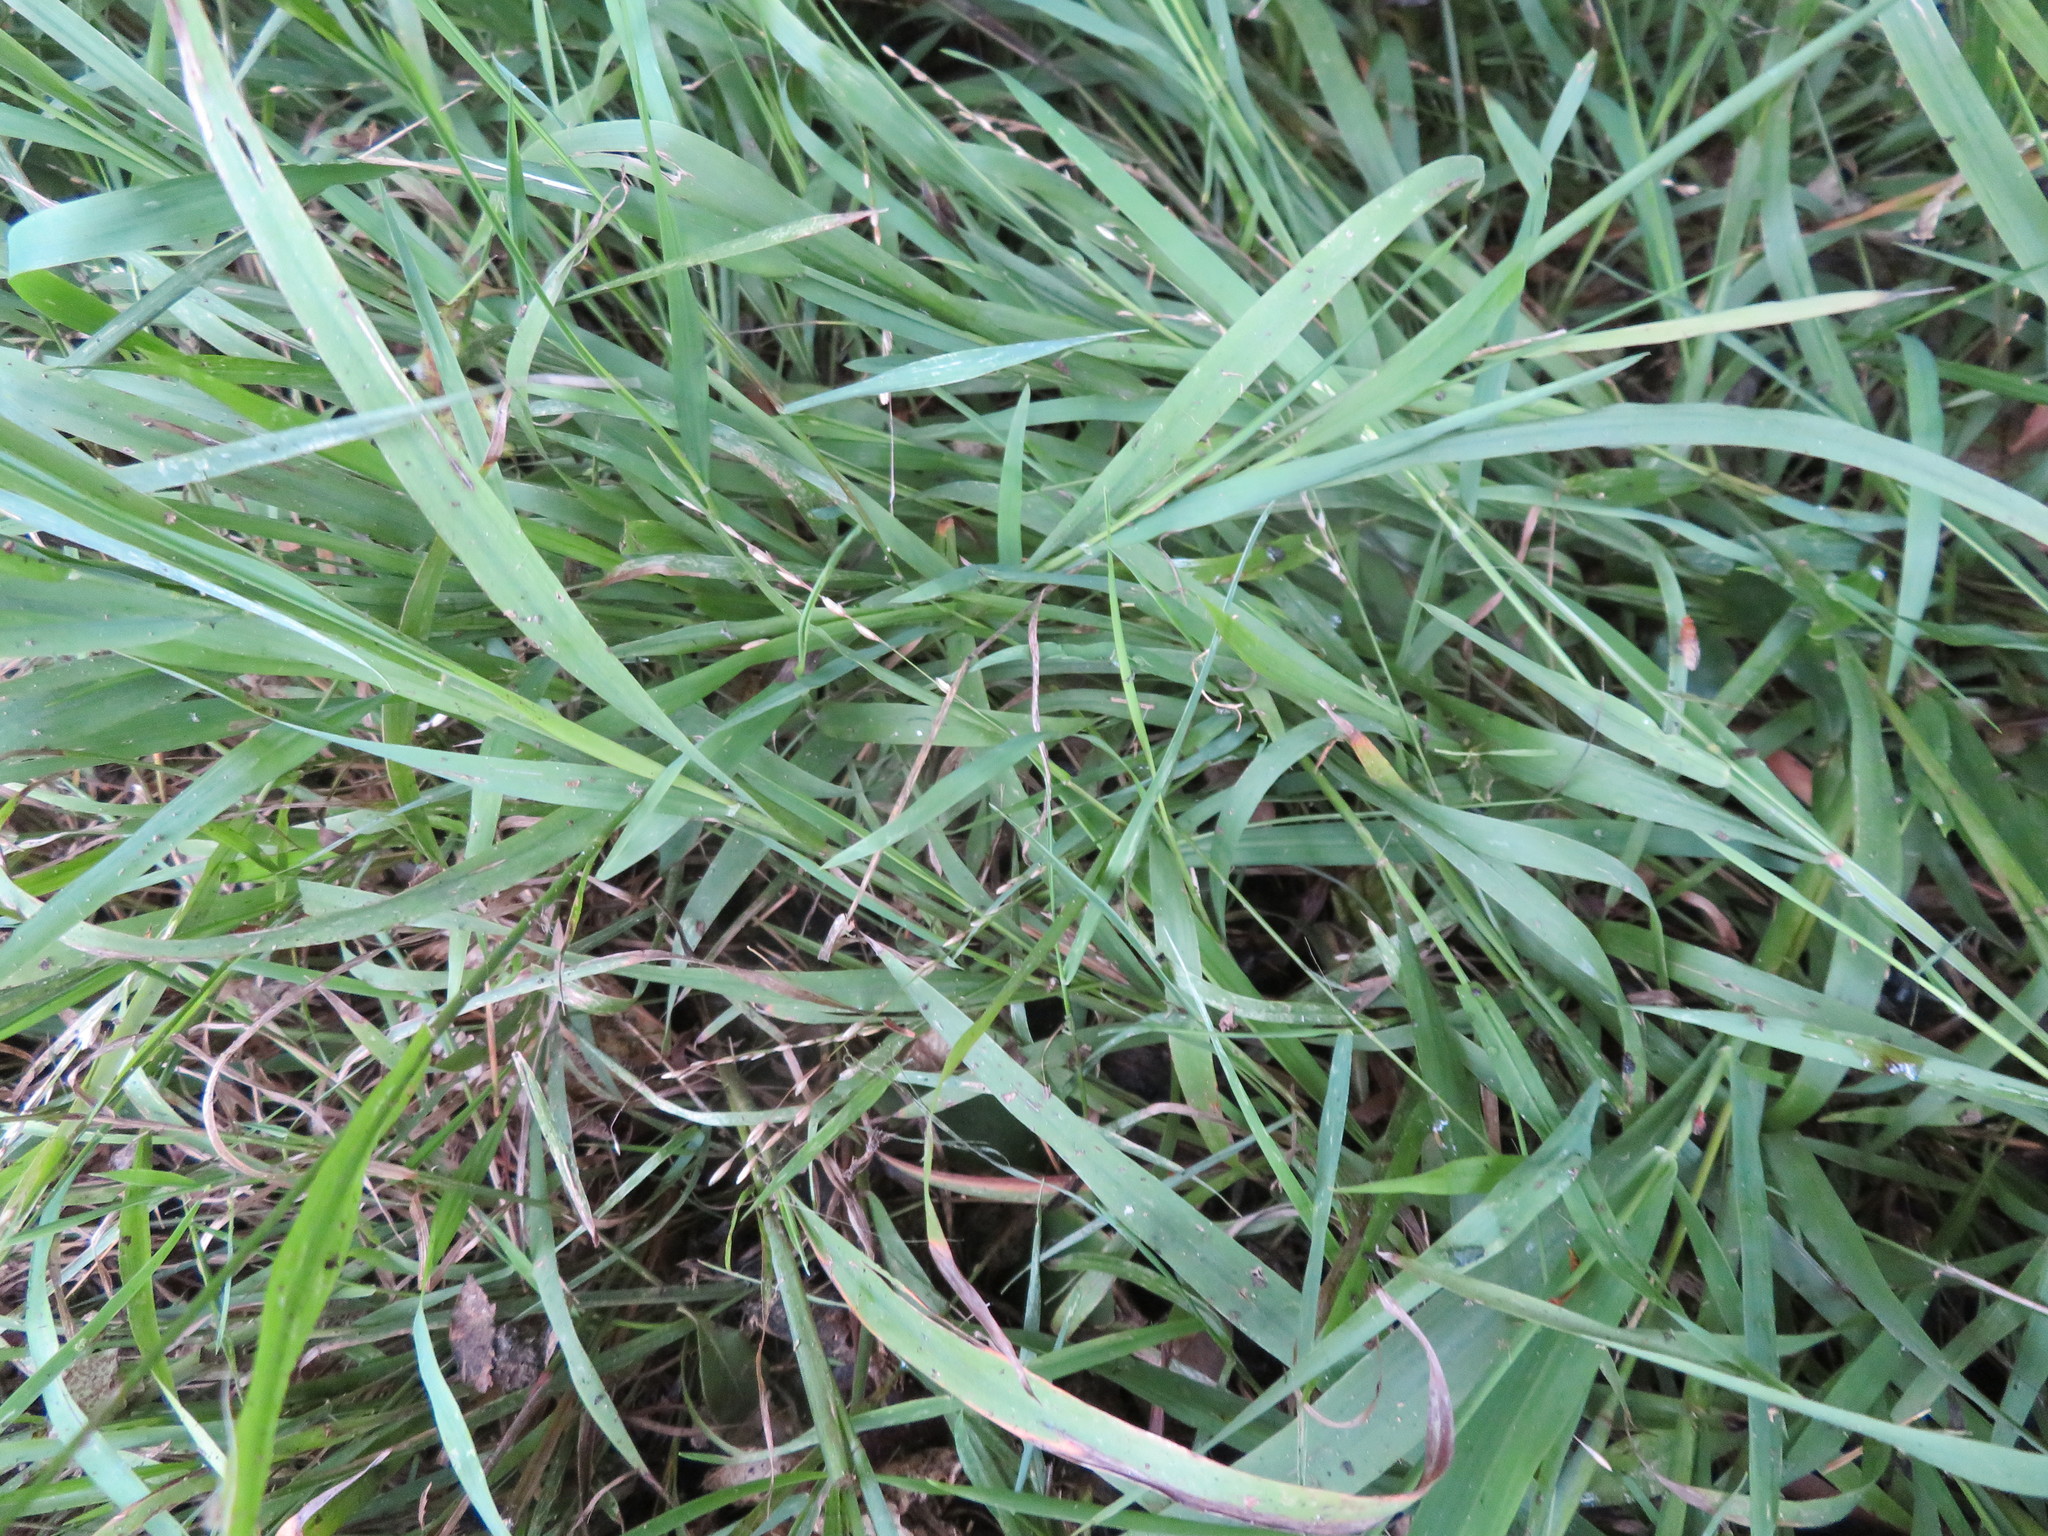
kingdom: Plantae
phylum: Tracheophyta
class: Liliopsida
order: Poales
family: Poaceae
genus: Ehrharta
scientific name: Ehrharta erecta
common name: Panic veldtgrass
